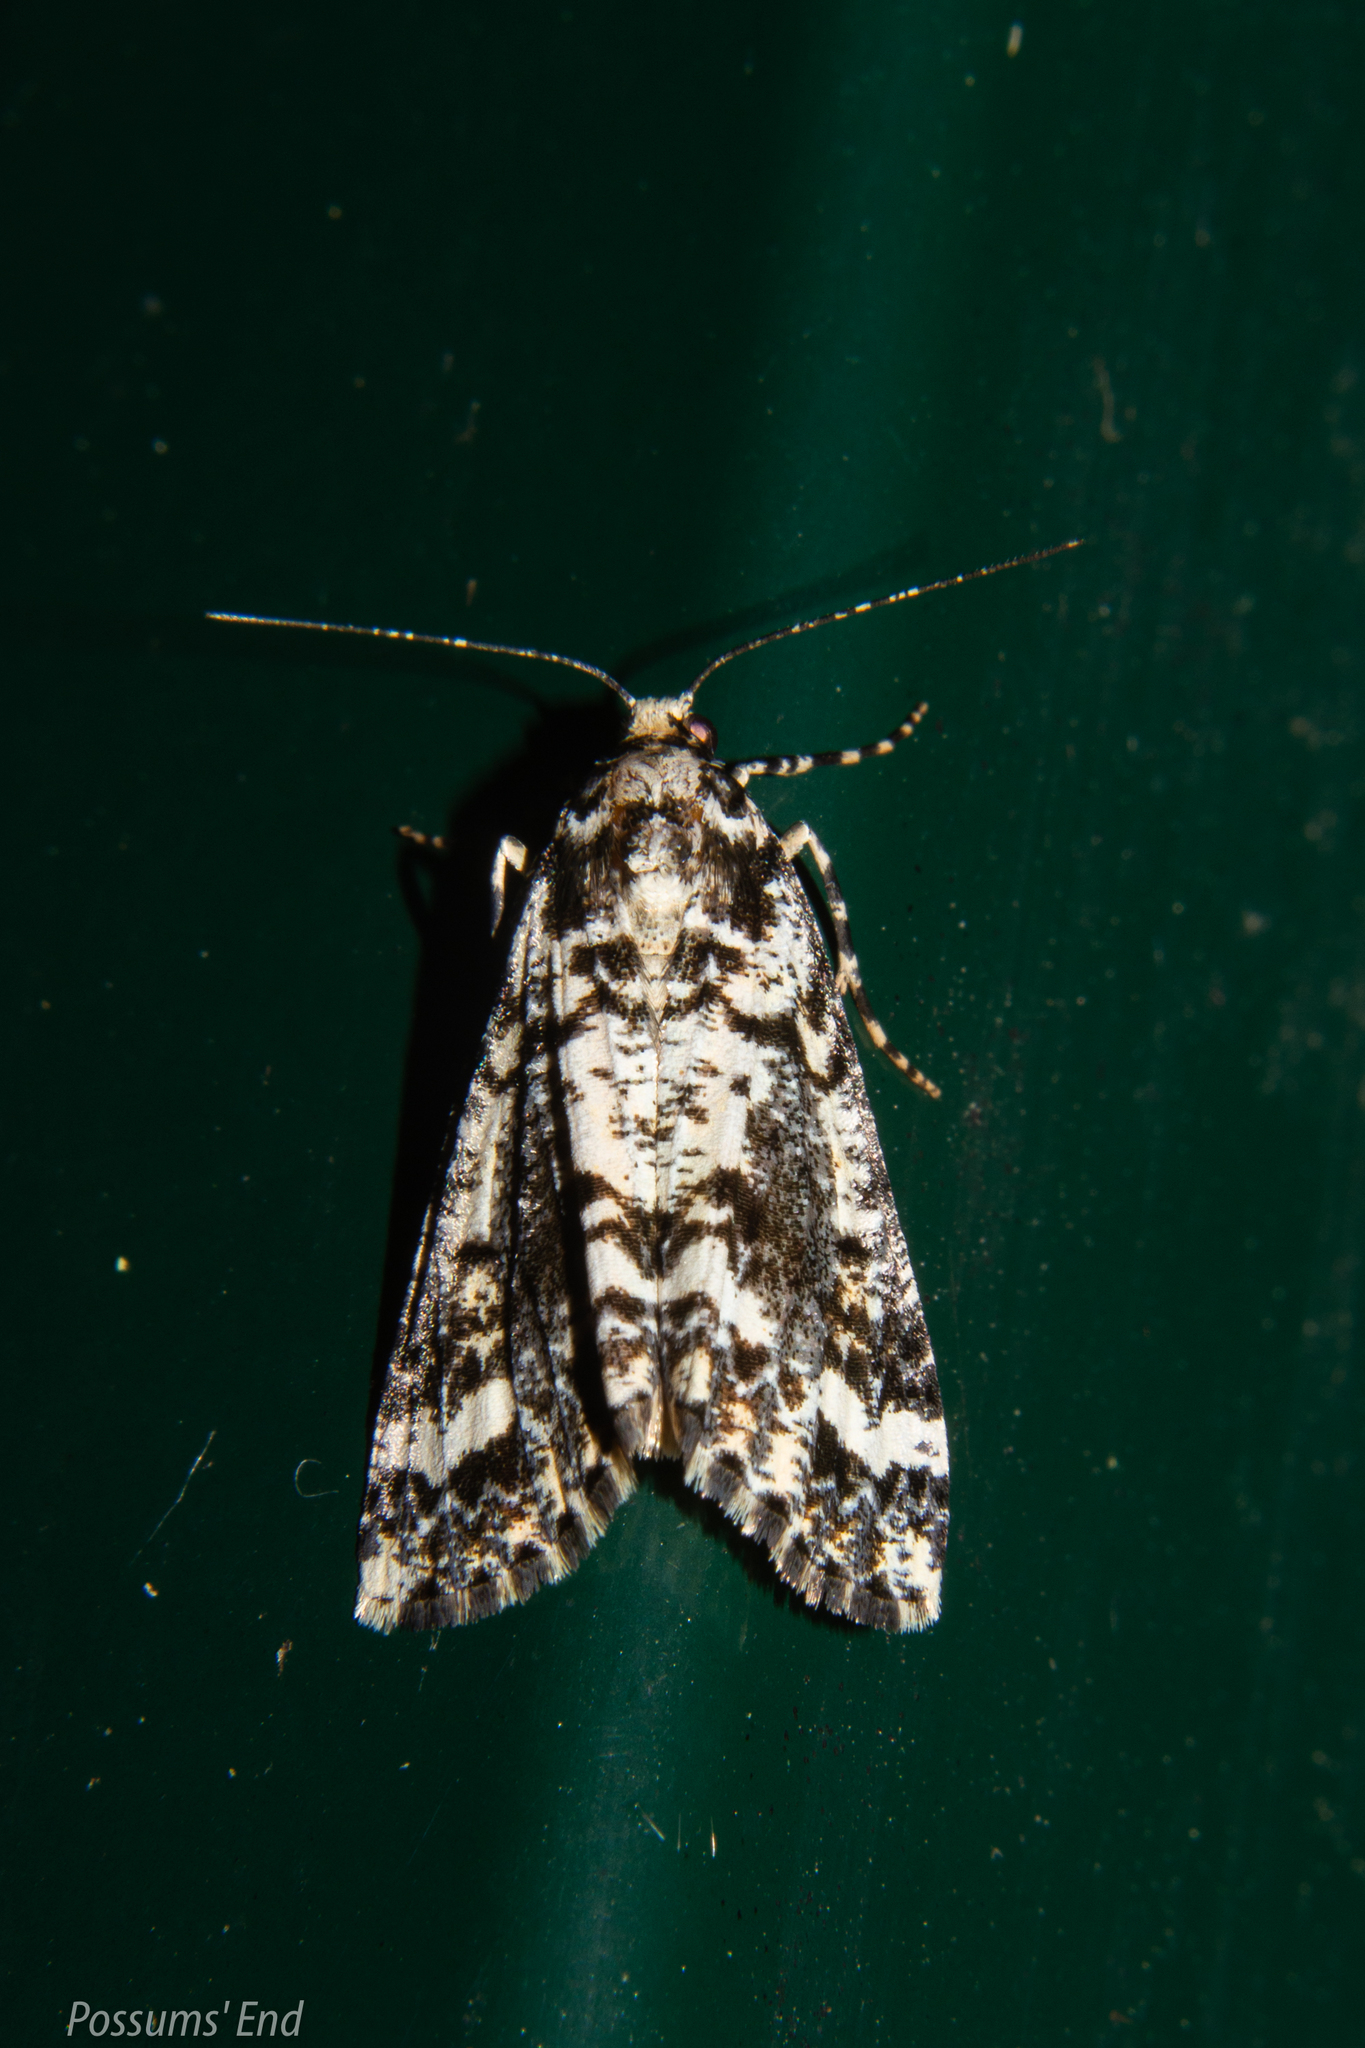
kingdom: Animalia
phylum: Arthropoda
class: Insecta
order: Lepidoptera
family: Geometridae
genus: Pseudocoremia
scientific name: Pseudocoremia leucelaea
